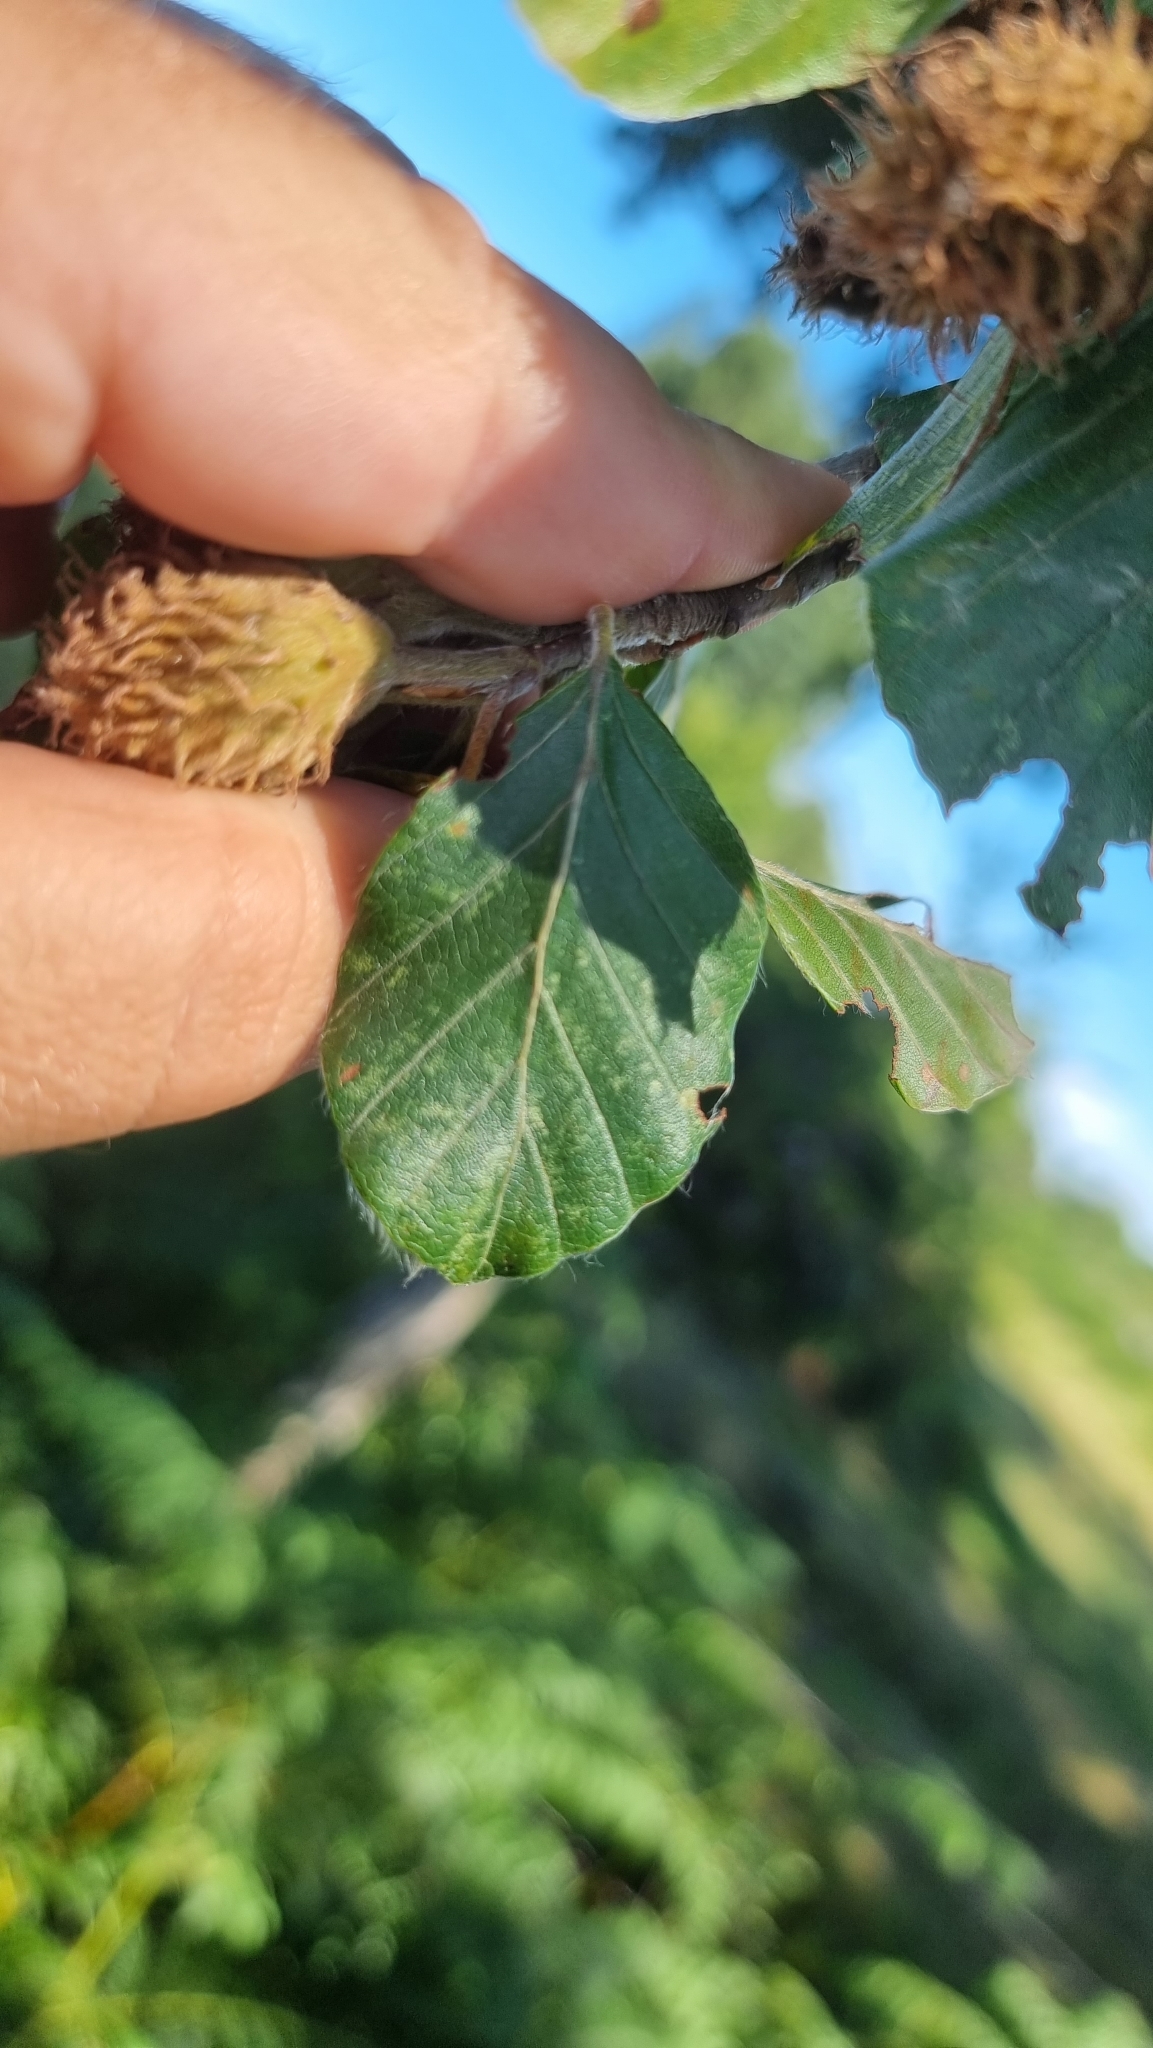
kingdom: Plantae
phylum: Tracheophyta
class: Magnoliopsida
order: Fagales
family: Fagaceae
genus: Fagus
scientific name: Fagus sylvatica
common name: Beech
